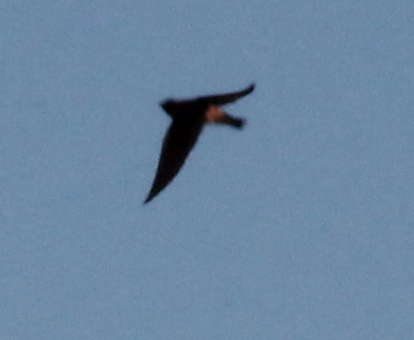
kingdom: Animalia
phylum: Chordata
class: Aves
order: Passeriformes
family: Hirundinidae
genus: Petrochelidon
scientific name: Petrochelidon pyrrhonota
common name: American cliff swallow
